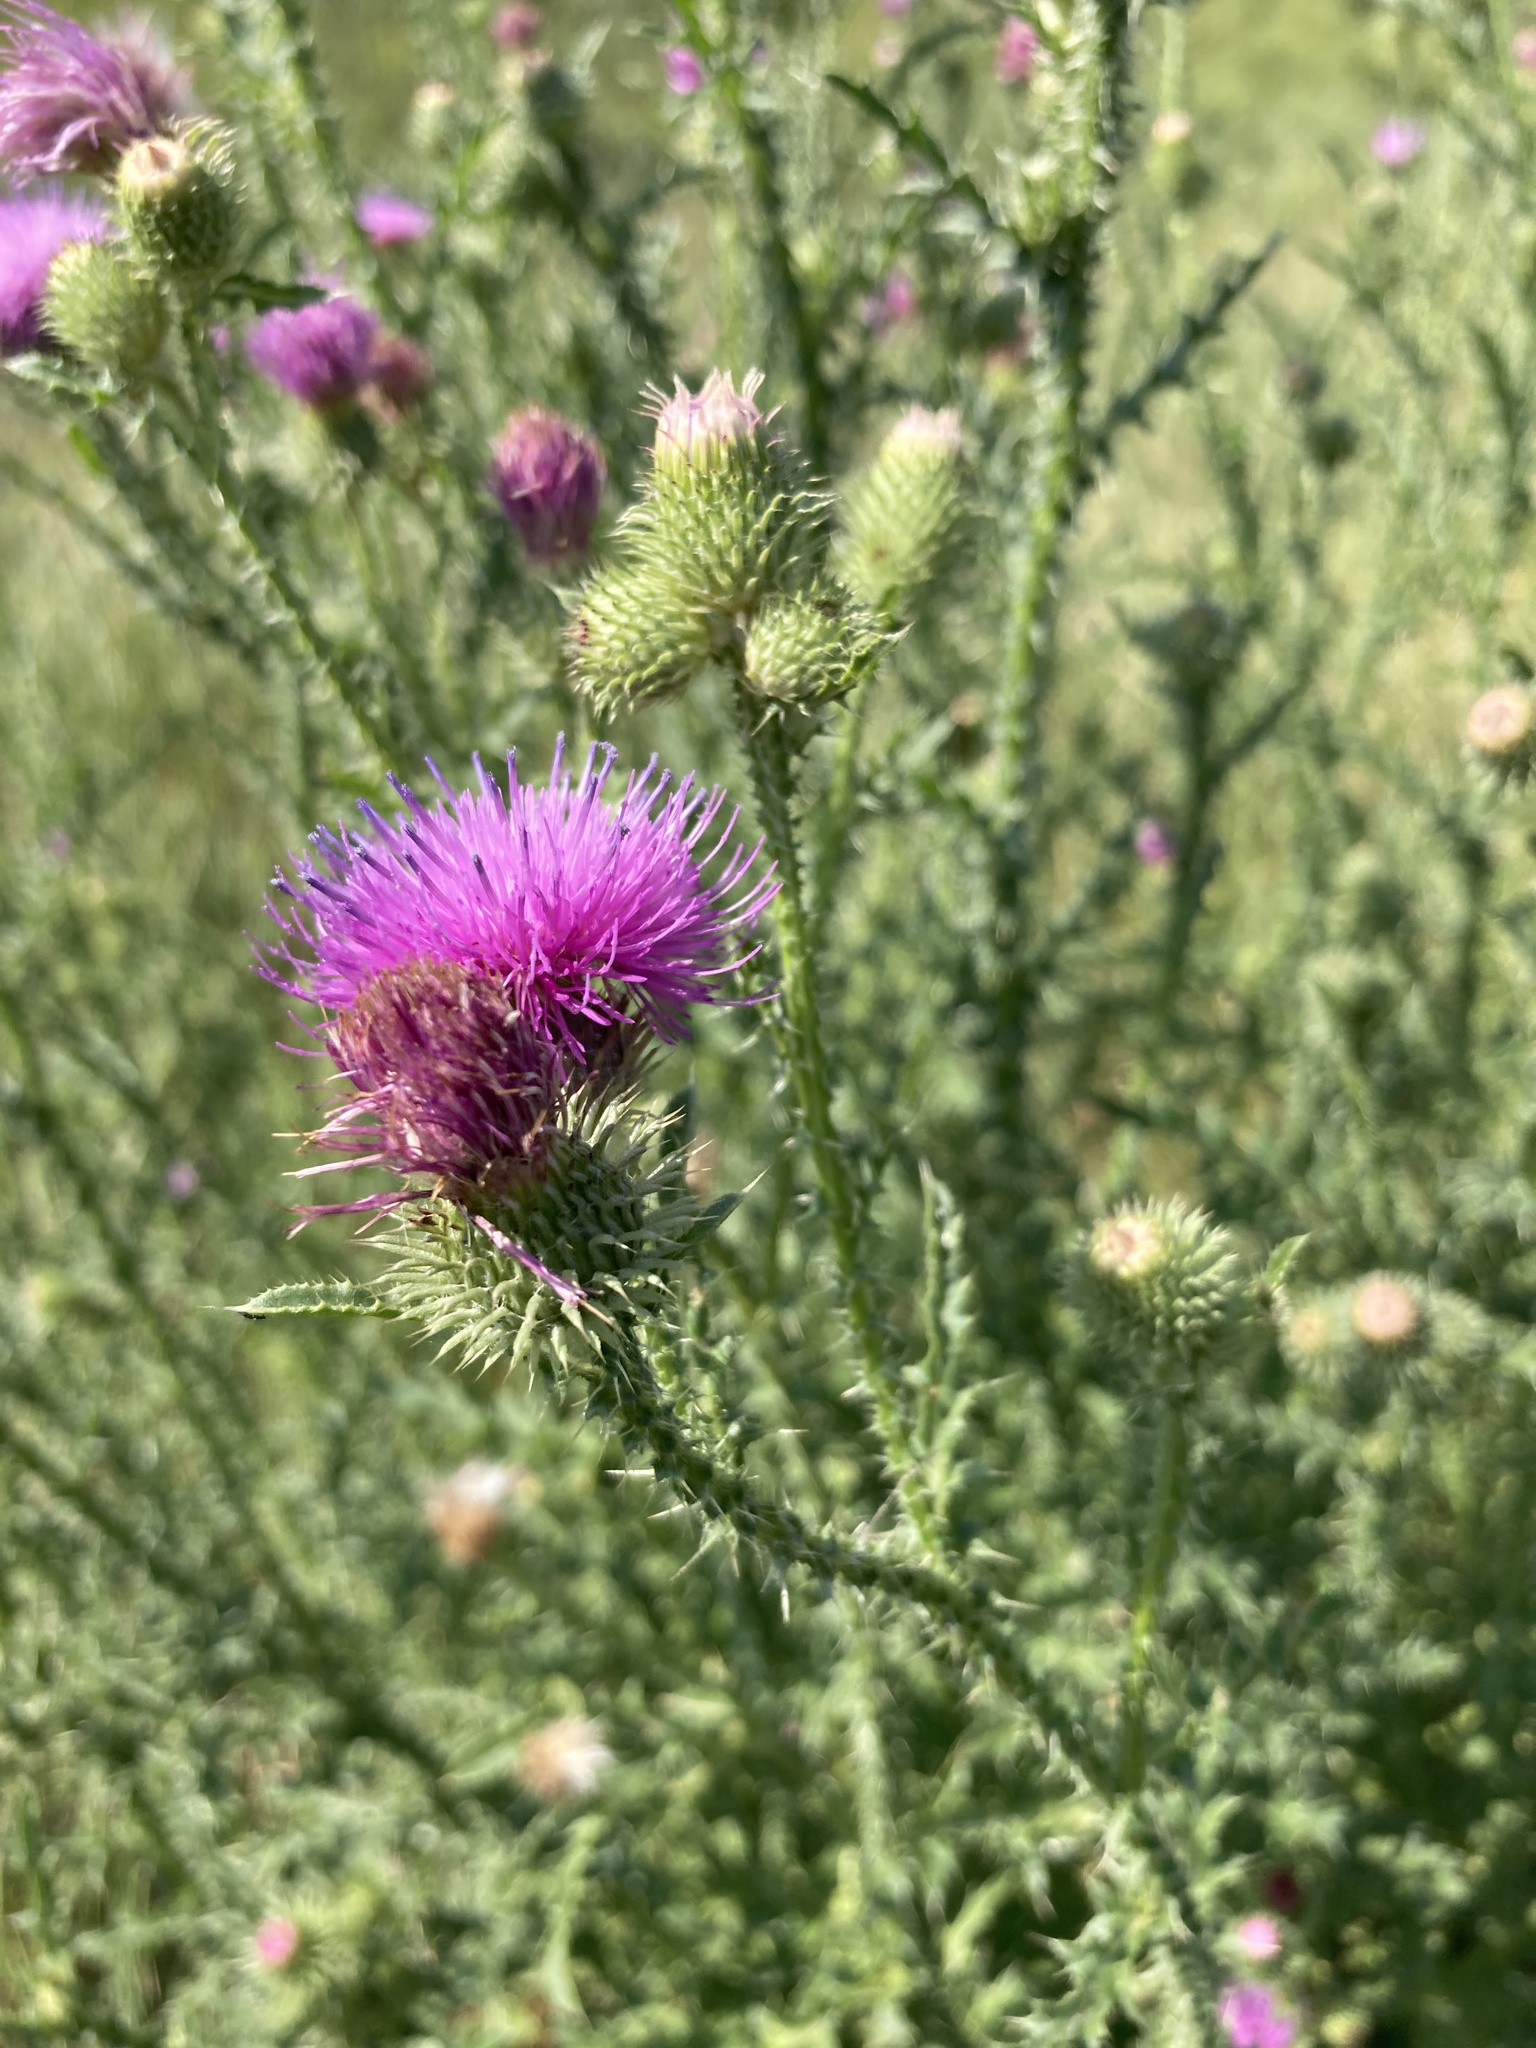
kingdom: Plantae
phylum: Tracheophyta
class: Magnoliopsida
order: Asterales
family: Asteraceae
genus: Carduus
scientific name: Carduus acanthoides
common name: Plumeless thistle
